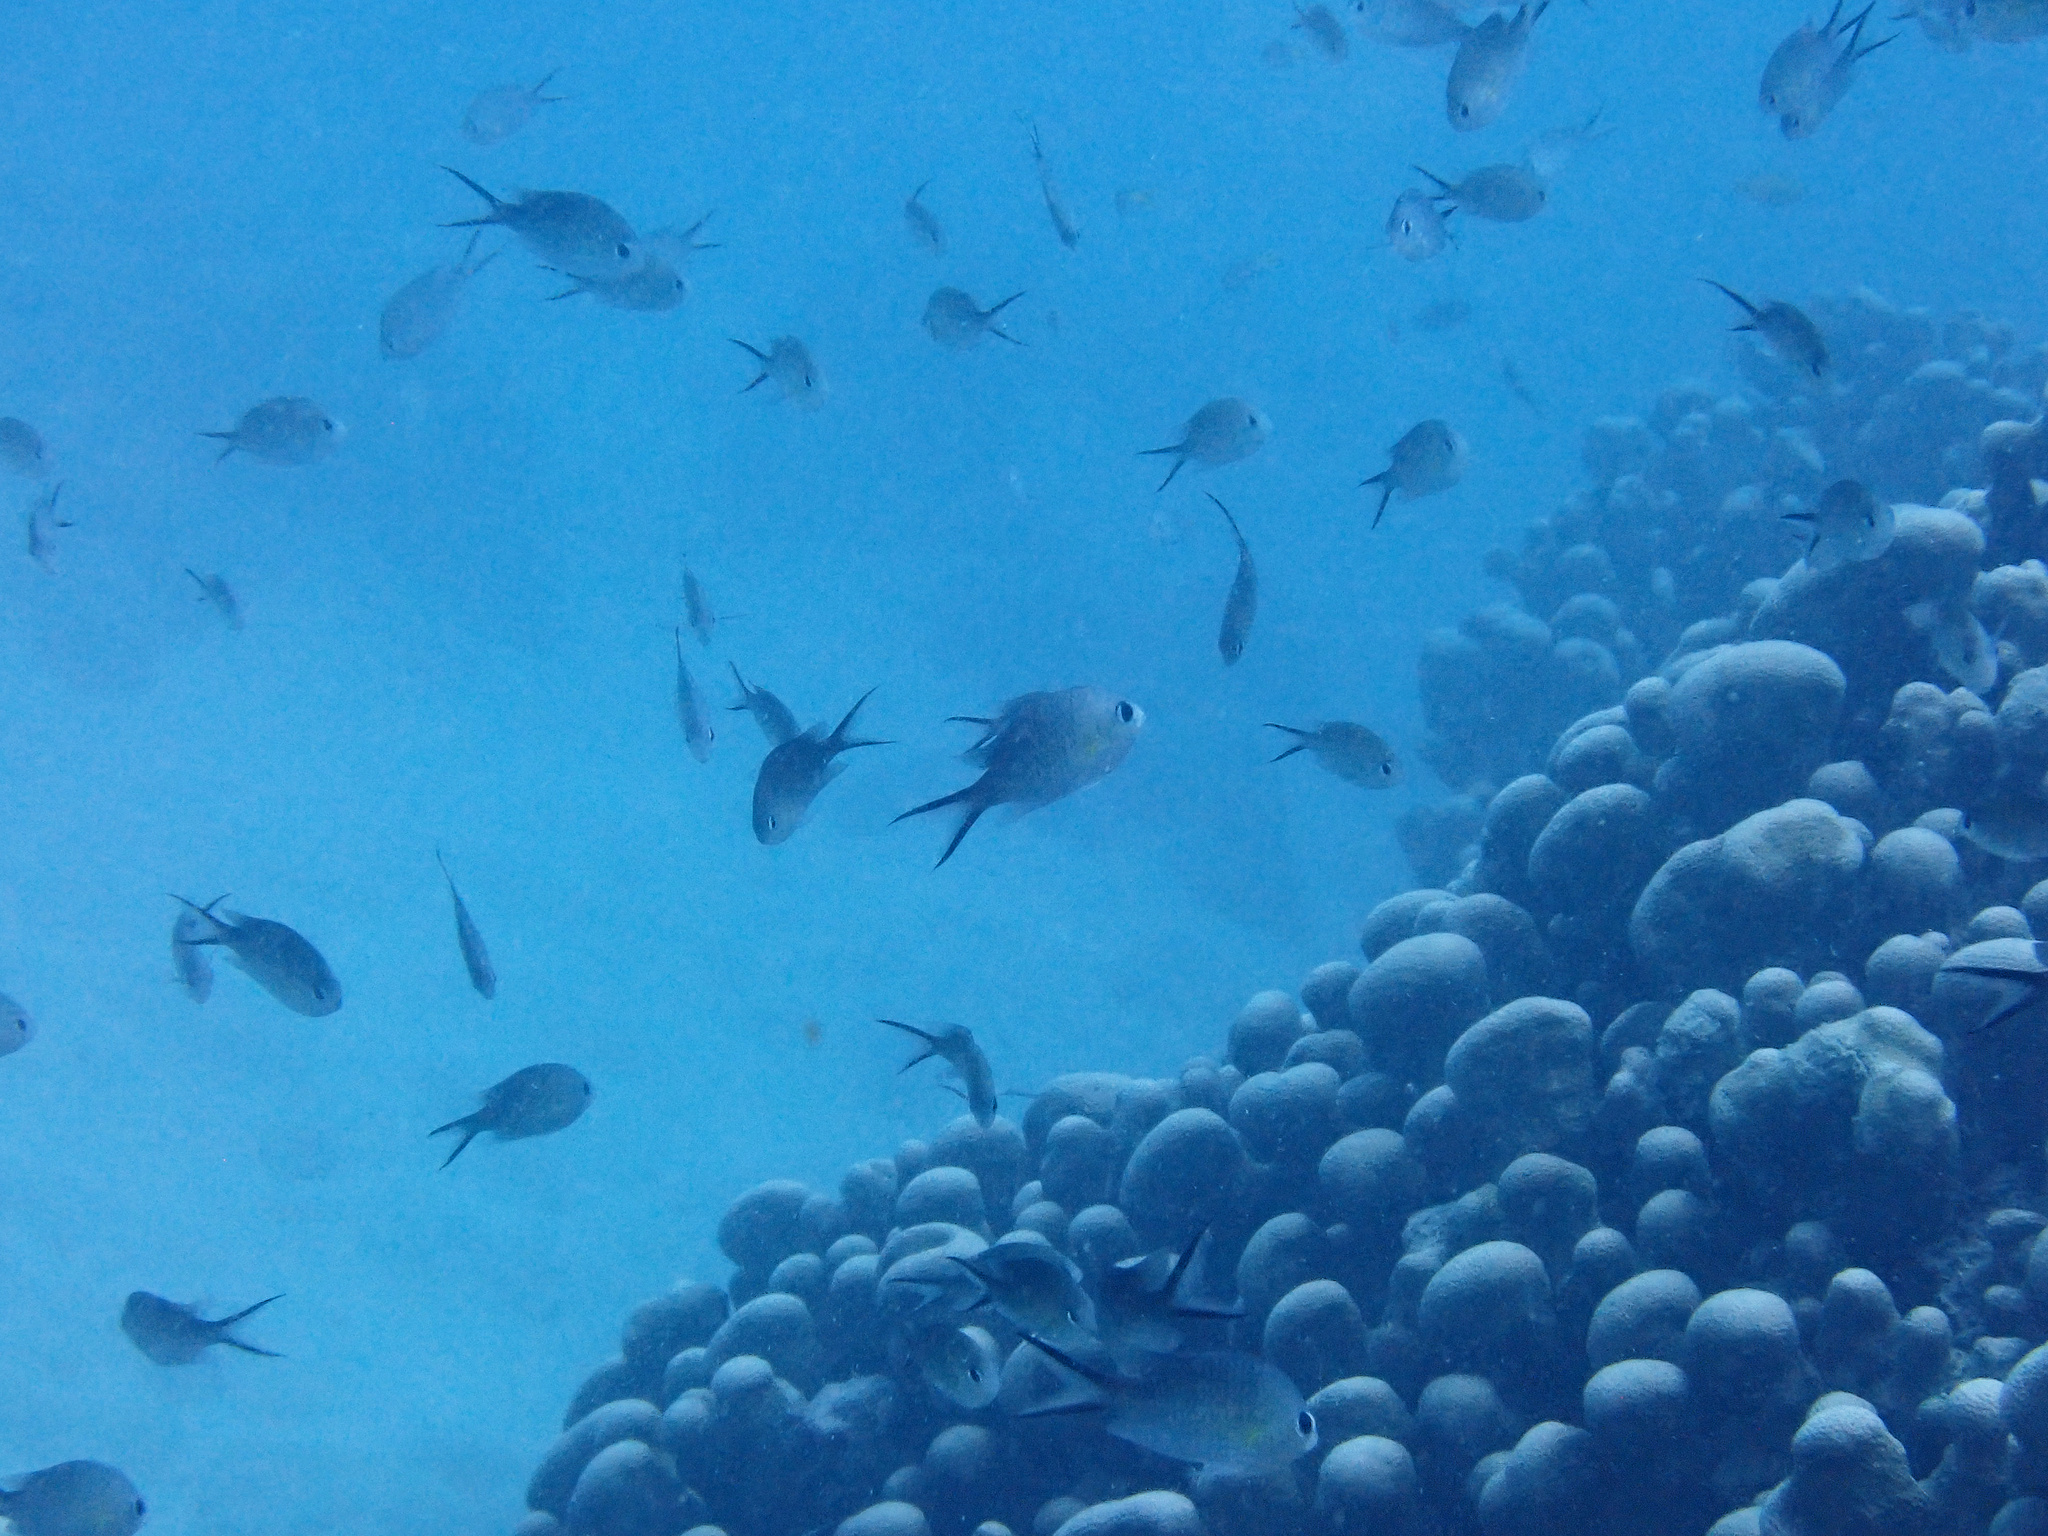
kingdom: Animalia
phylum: Chordata
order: Perciformes
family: Pomacentridae
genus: Chromis
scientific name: Chromis ternatensis
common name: Ternate chromis
